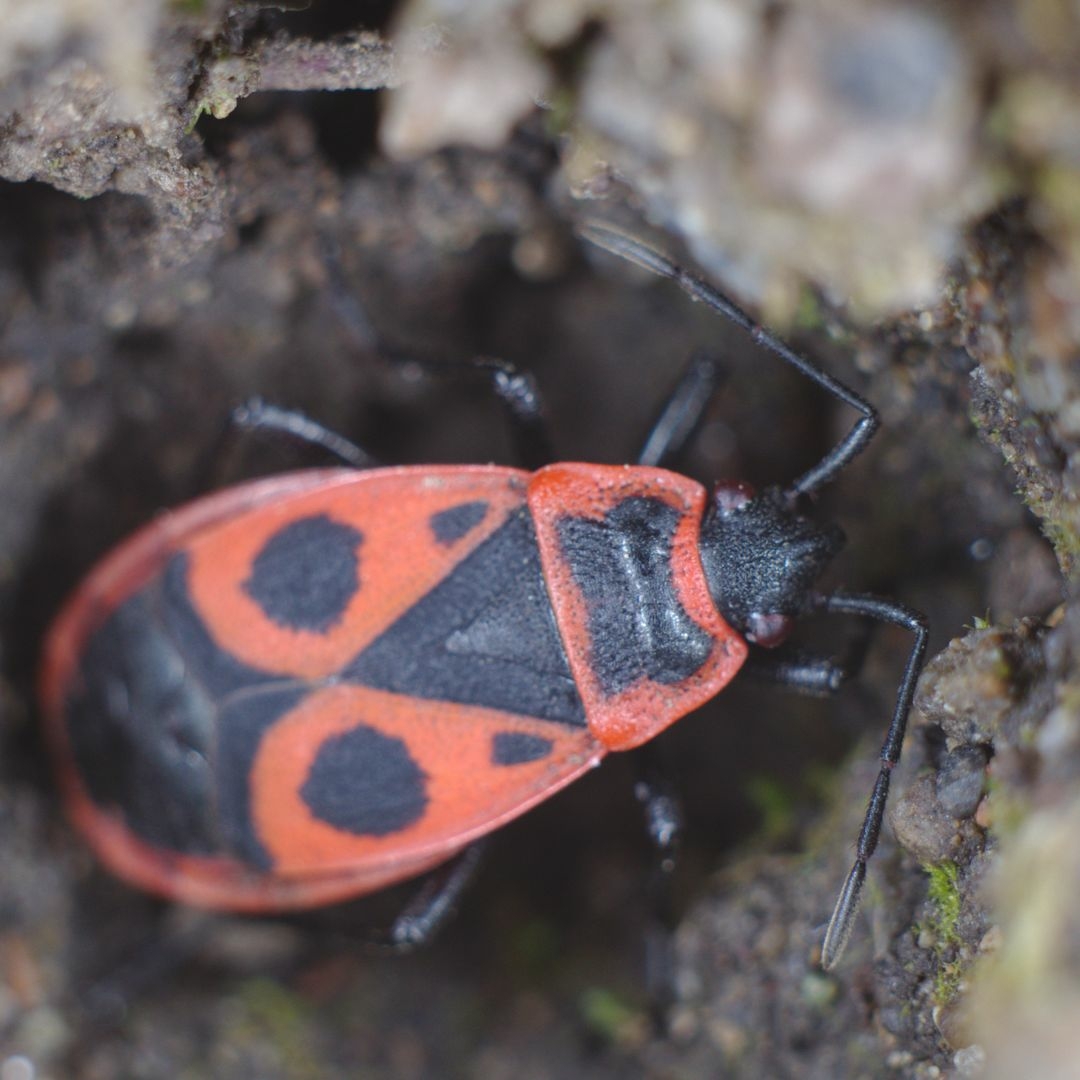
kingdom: Animalia
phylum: Arthropoda
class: Insecta
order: Hemiptera
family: Pyrrhocoridae
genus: Pyrrhocoris
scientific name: Pyrrhocoris apterus
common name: Firebug
